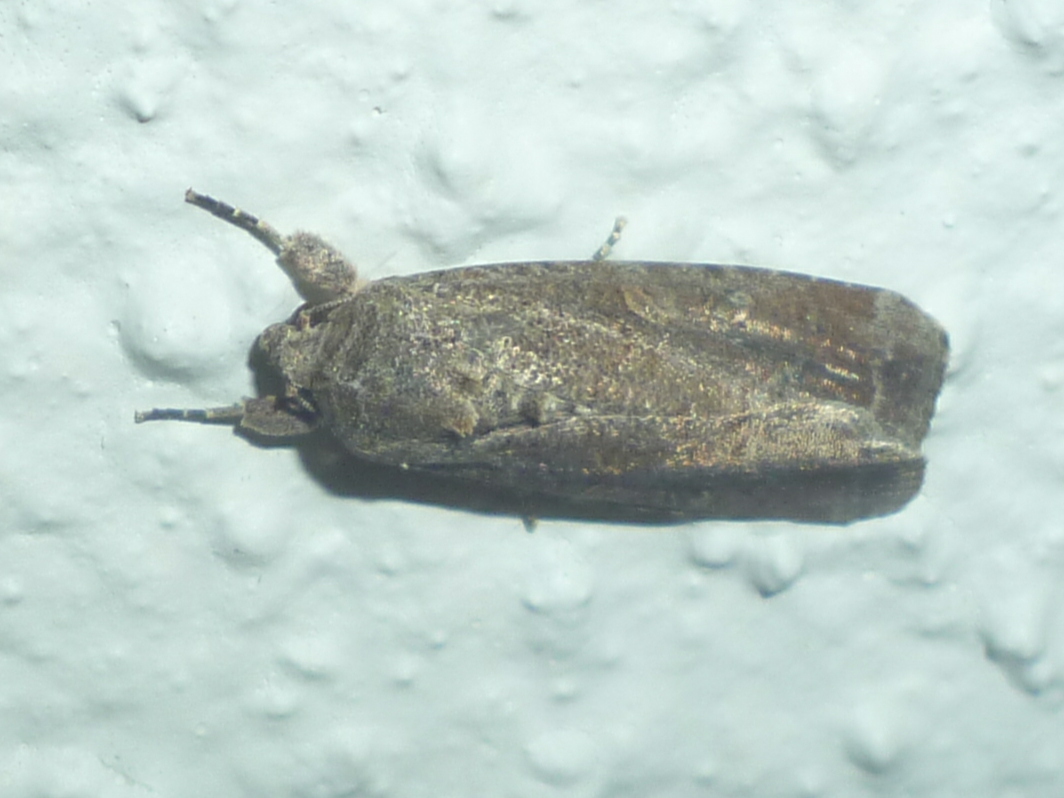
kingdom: Animalia
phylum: Arthropoda
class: Insecta
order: Lepidoptera
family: Noctuidae
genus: Spodoptera
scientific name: Spodoptera frugiperda
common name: Fall armyworm
